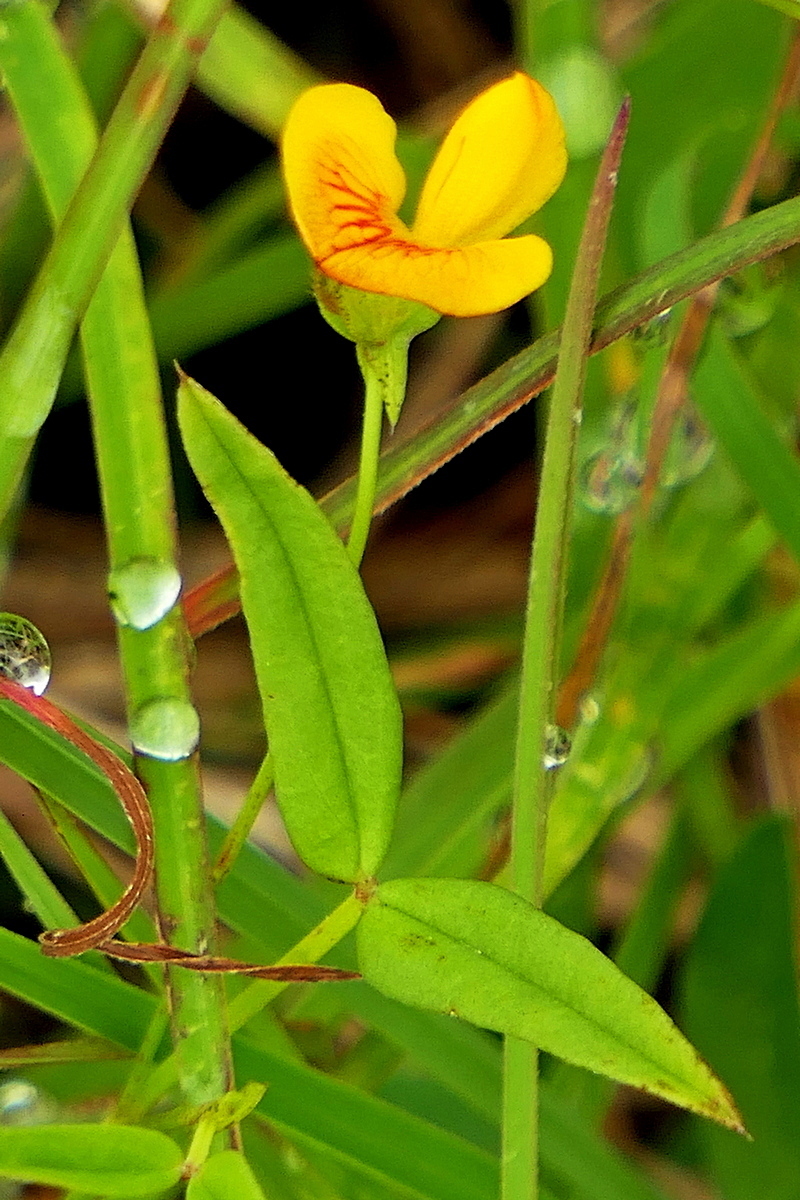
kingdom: Plantae
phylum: Tracheophyta
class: Magnoliopsida
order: Fabales
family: Fabaceae
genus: Zornia
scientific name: Zornia dyctiocarpa
